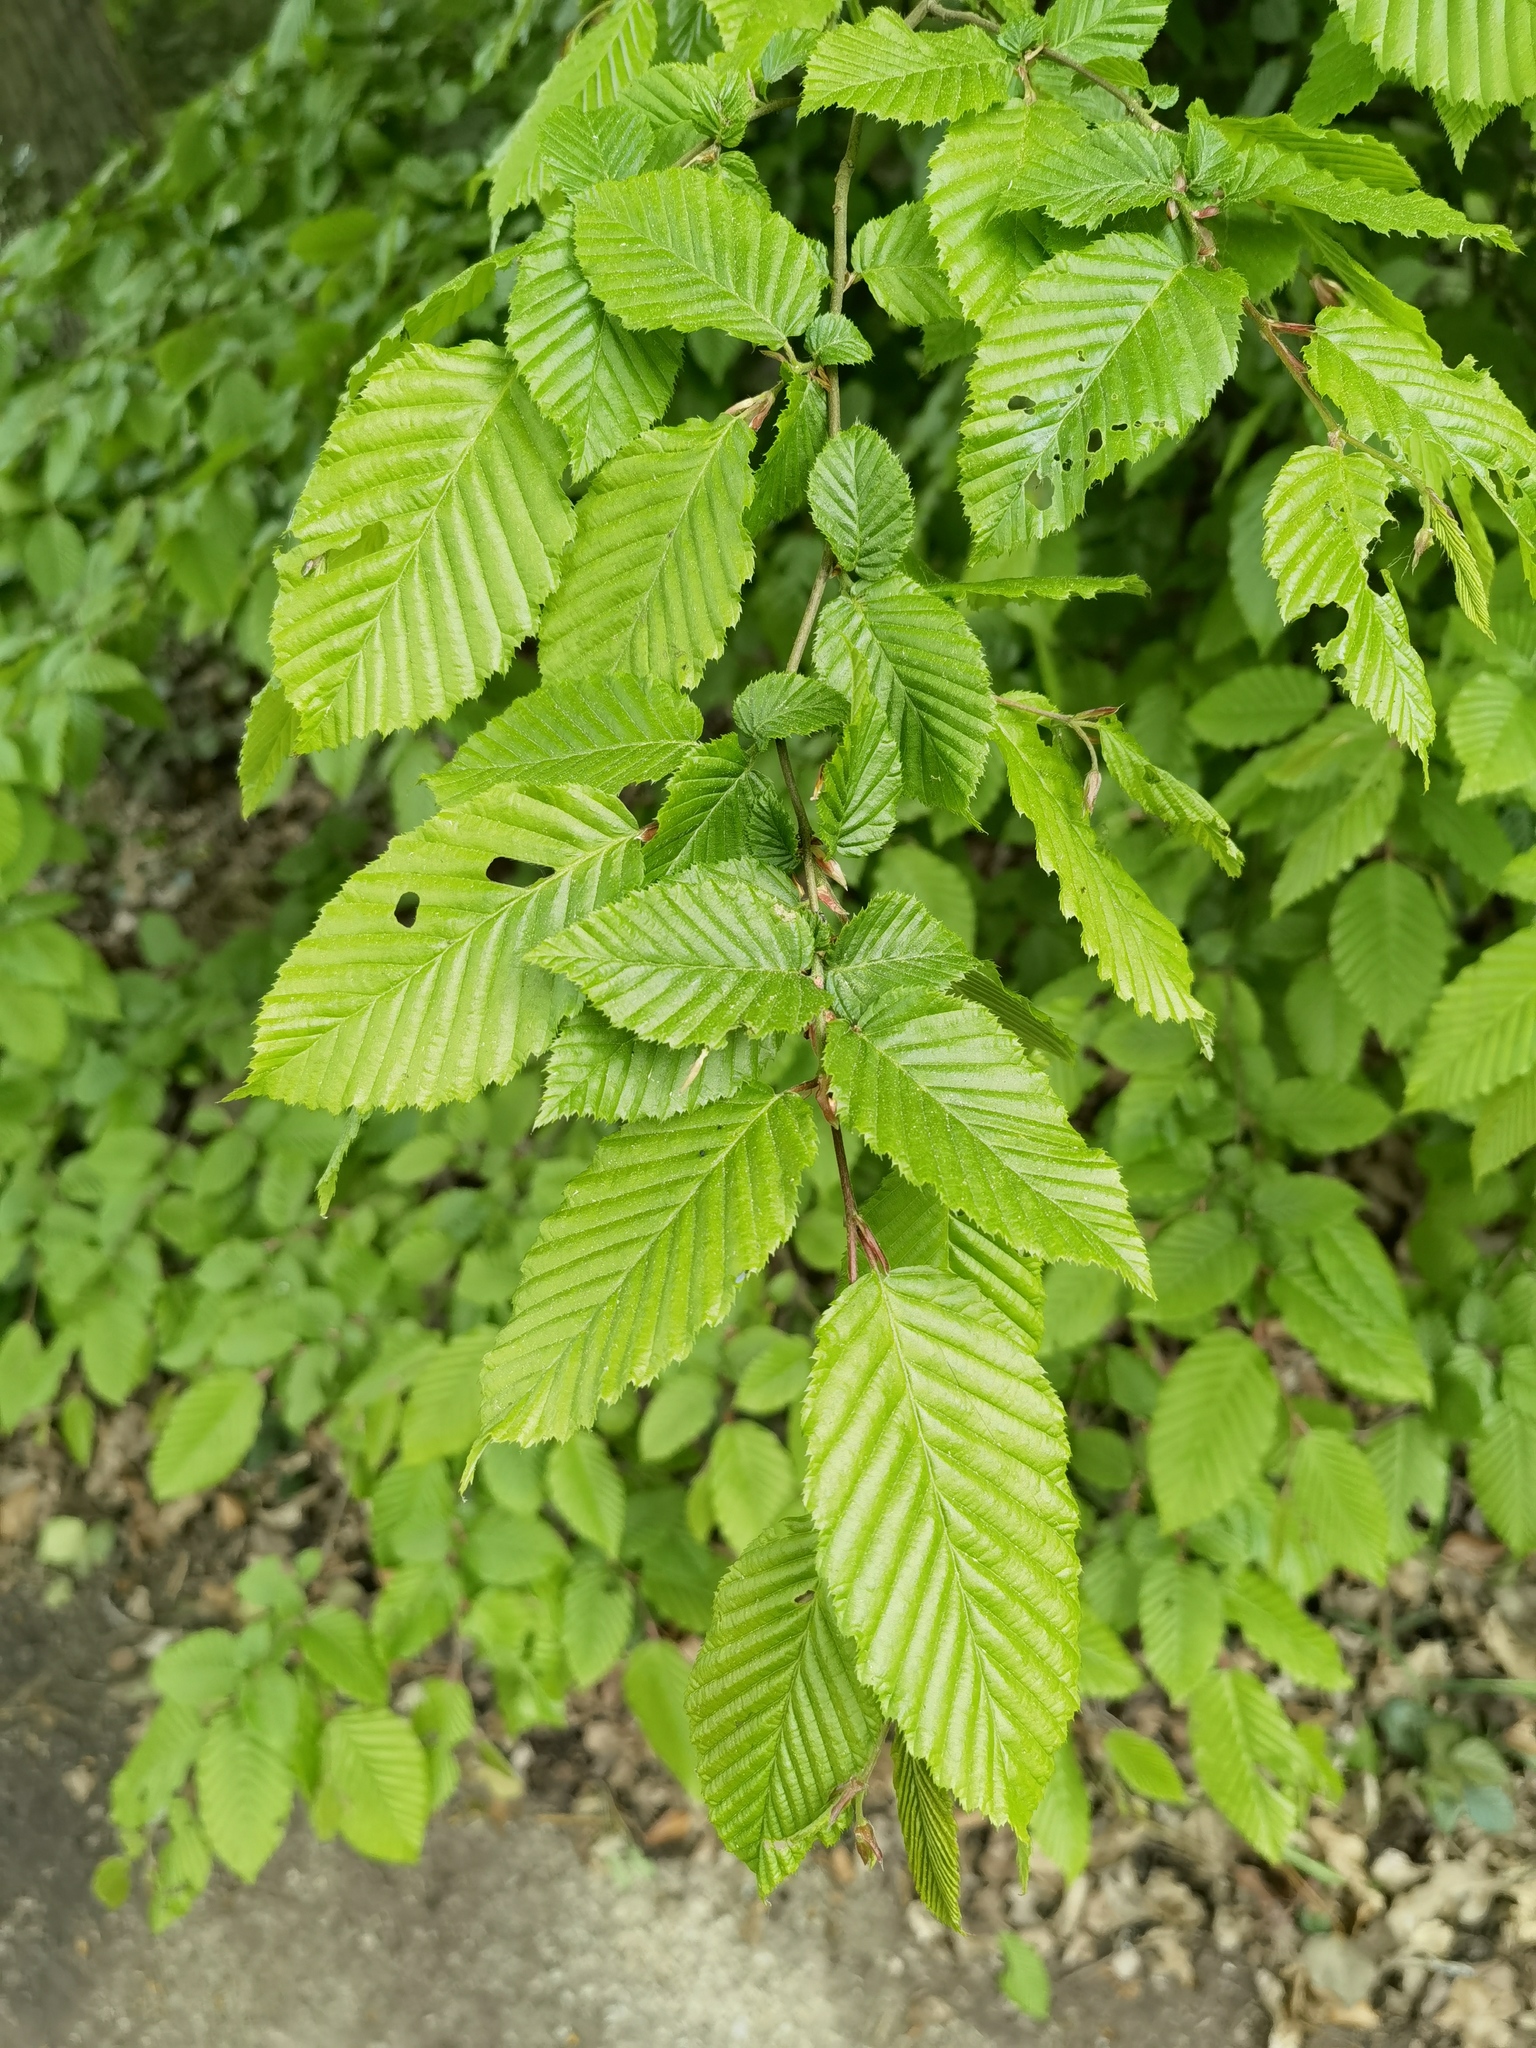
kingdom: Plantae
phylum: Tracheophyta
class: Magnoliopsida
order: Fagales
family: Betulaceae
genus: Carpinus
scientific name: Carpinus betulus
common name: Hornbeam
